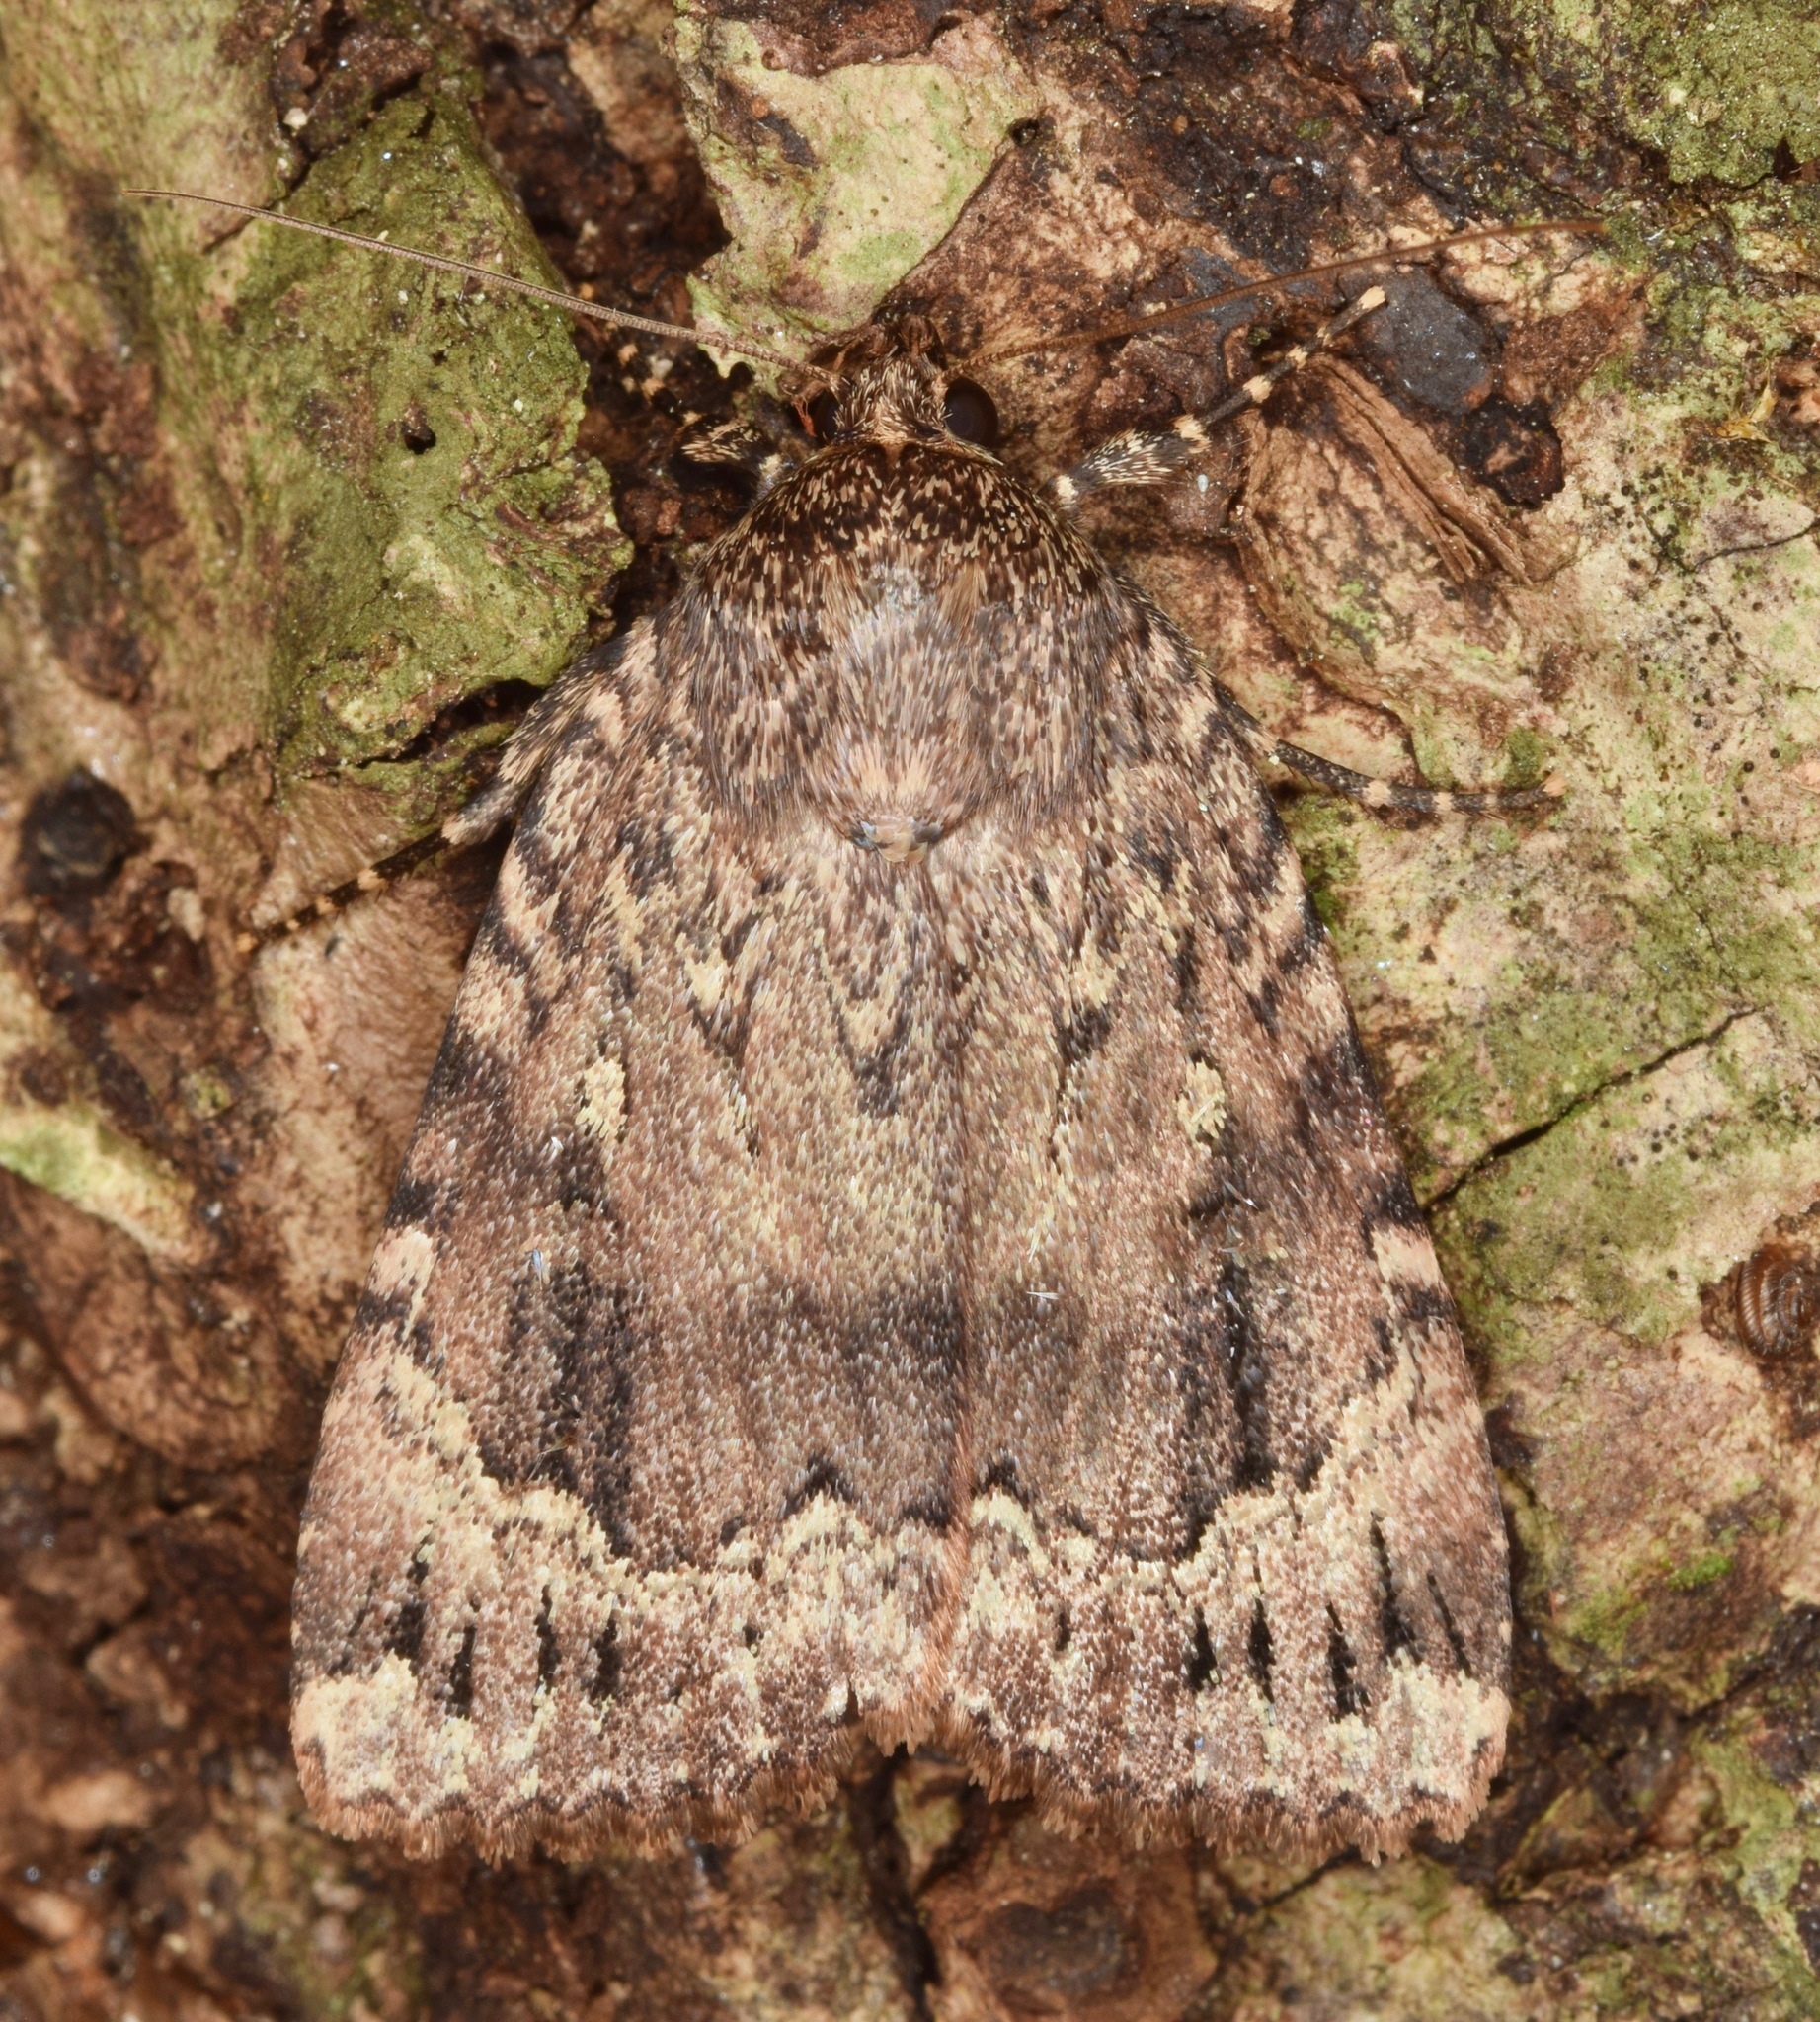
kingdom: Animalia
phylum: Arthropoda
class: Insecta
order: Lepidoptera
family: Noctuidae
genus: Amphipyra
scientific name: Amphipyra pyramidoides
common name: American copper underwing
